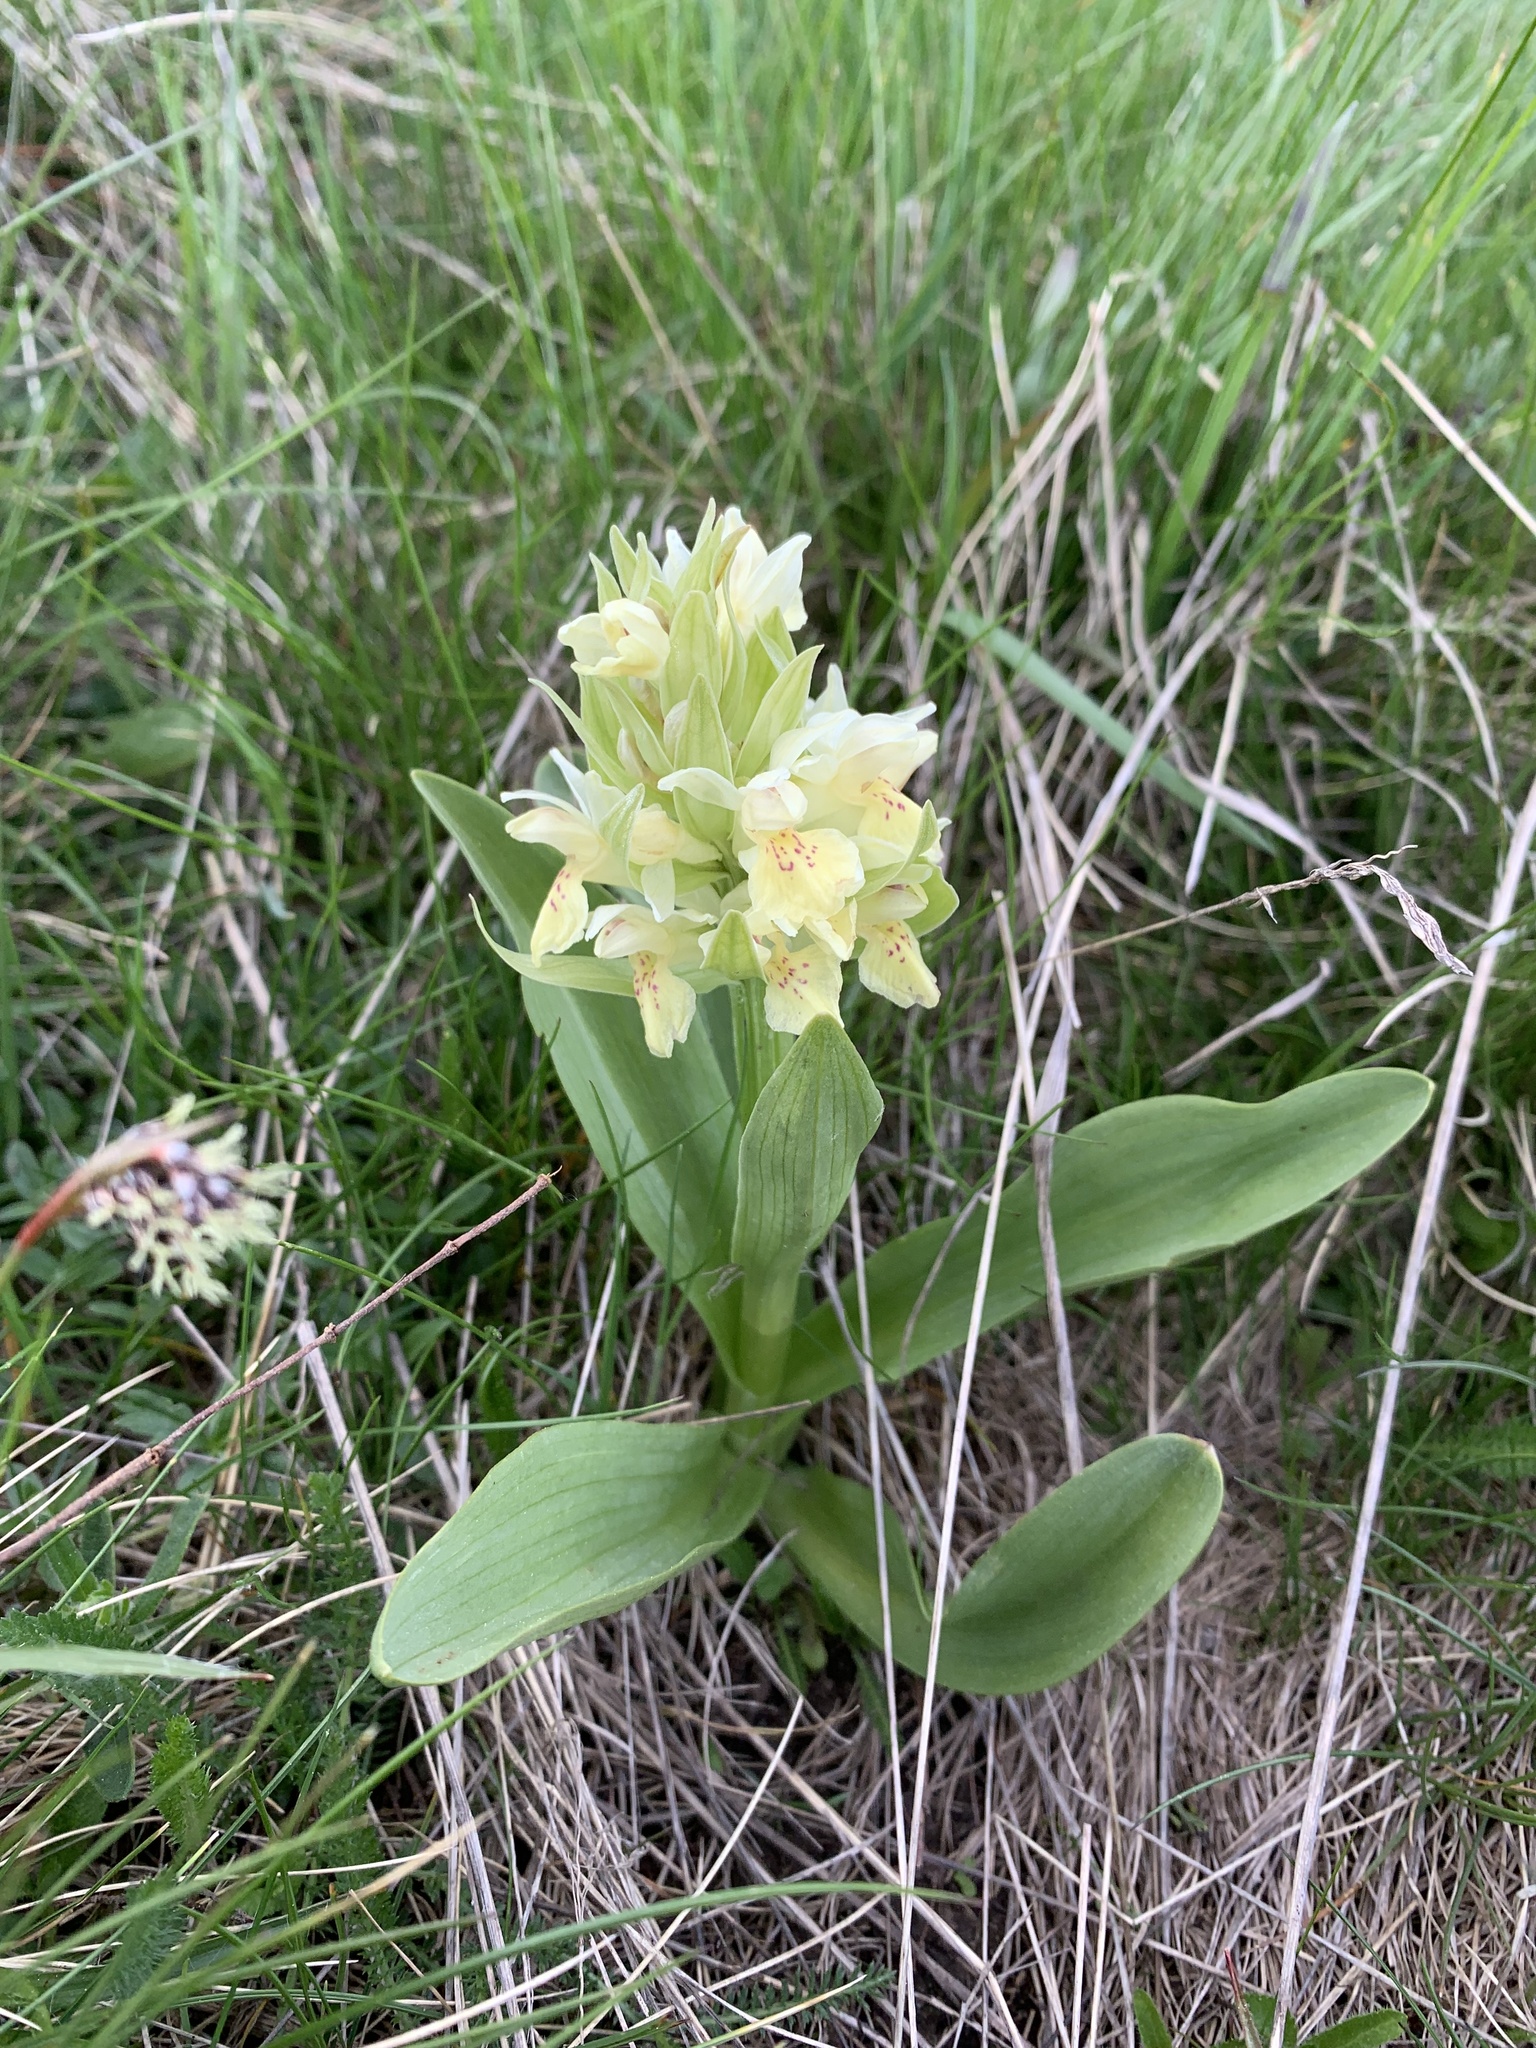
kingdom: Plantae
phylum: Tracheophyta
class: Liliopsida
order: Asparagales
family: Orchidaceae
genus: Dactylorhiza
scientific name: Dactylorhiza sambucina
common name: Elder-flowered orchid
